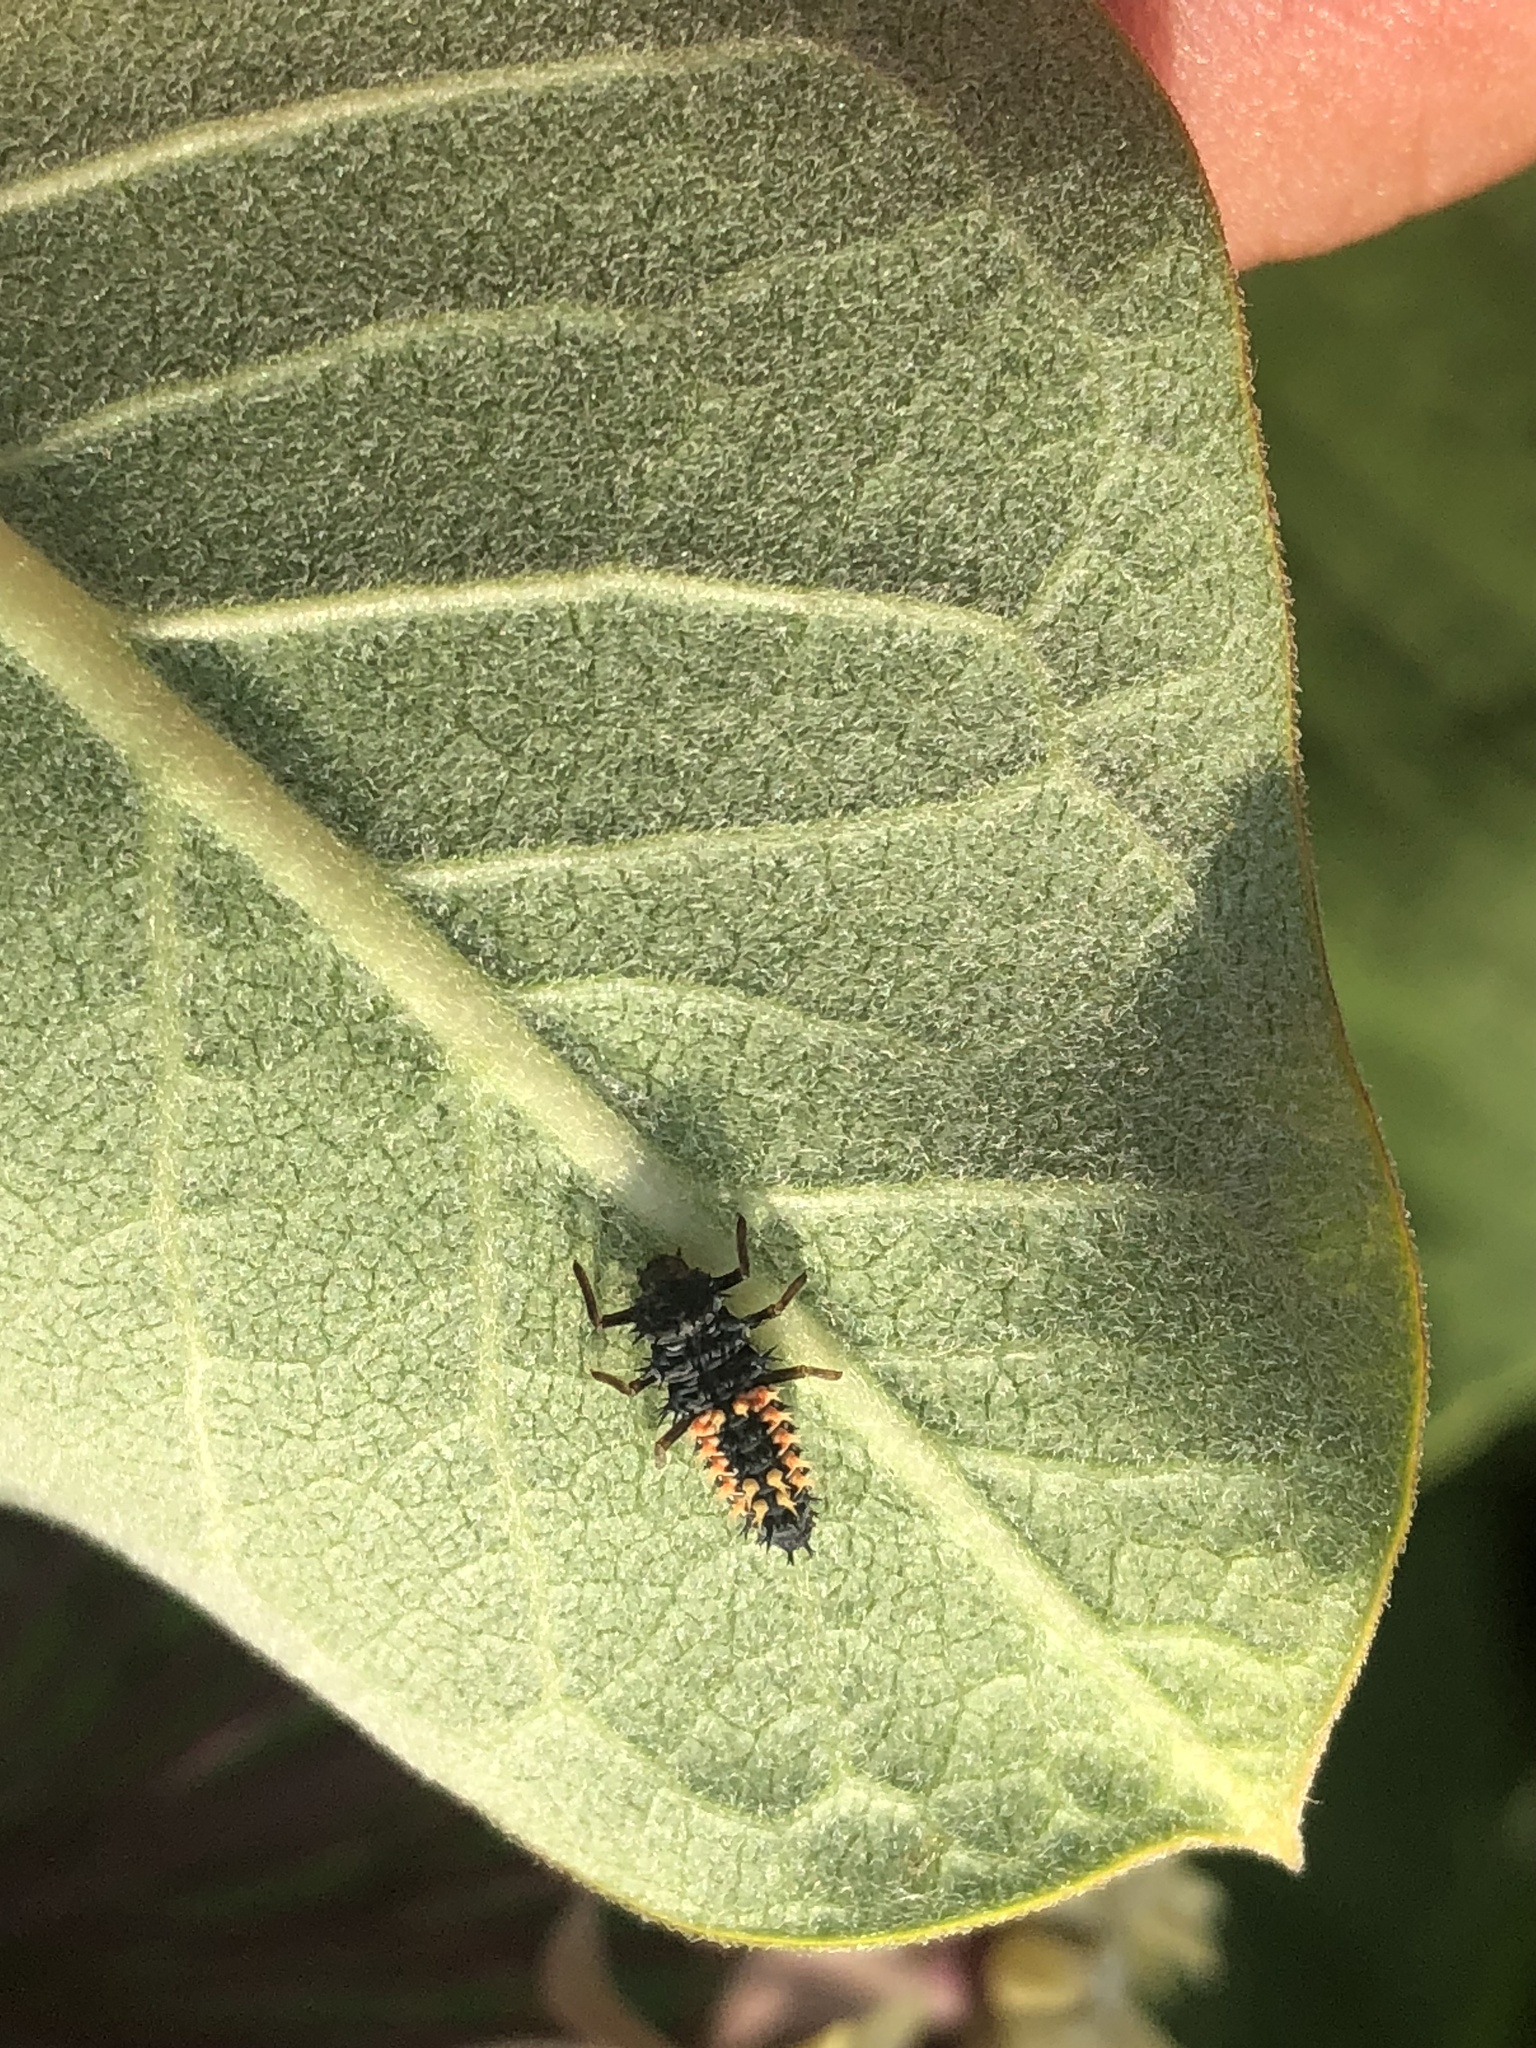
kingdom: Animalia
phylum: Arthropoda
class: Insecta
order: Coleoptera
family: Coccinellidae
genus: Harmonia
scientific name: Harmonia axyridis
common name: Harlequin ladybird
